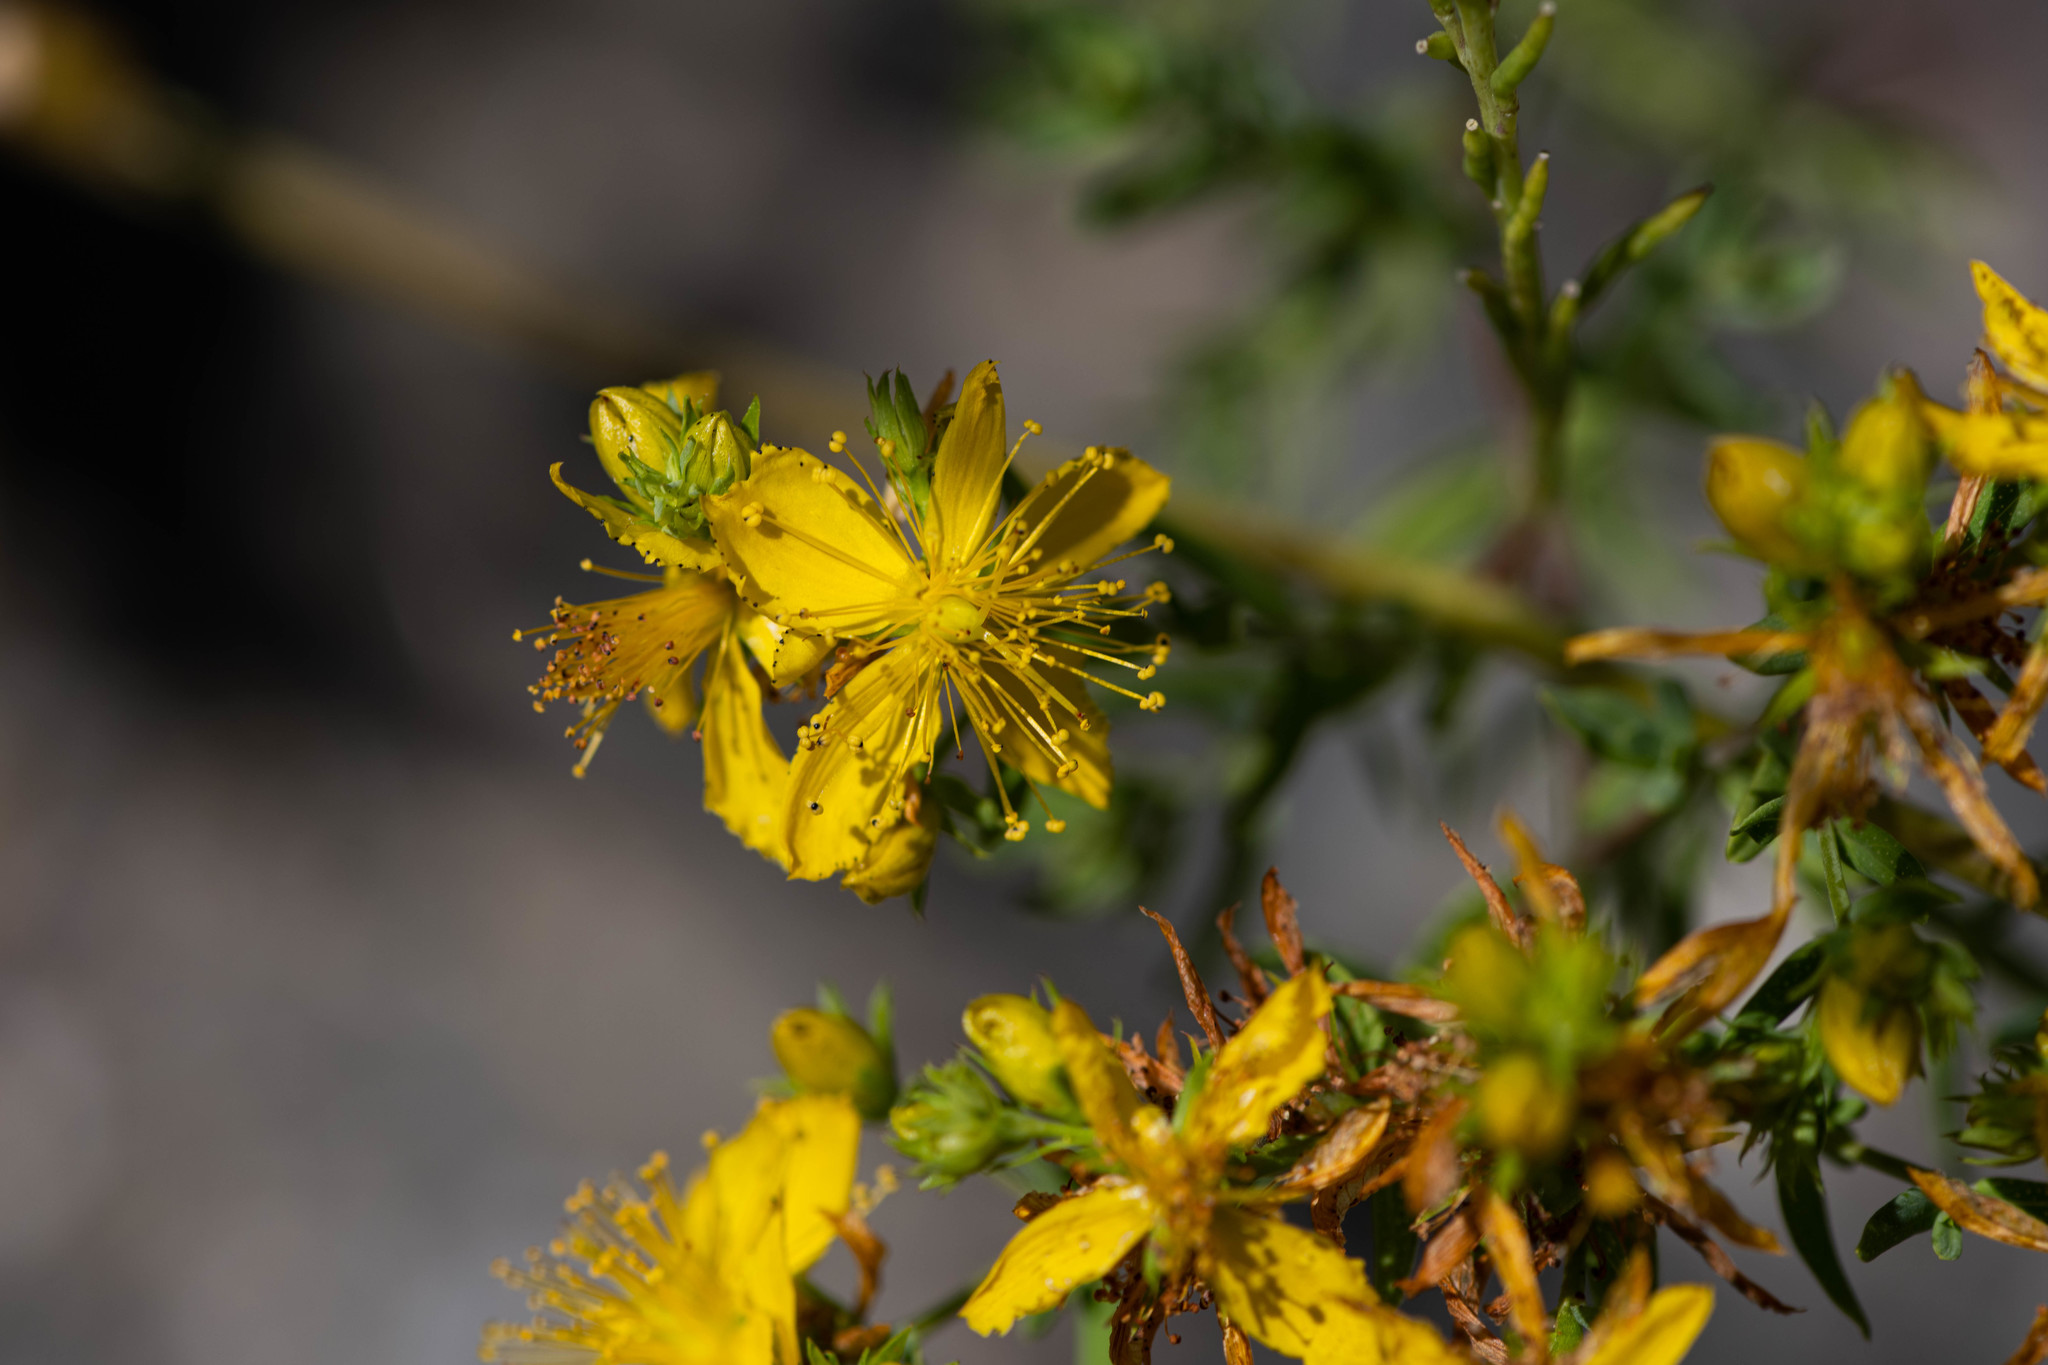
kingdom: Plantae
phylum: Tracheophyta
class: Magnoliopsida
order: Malpighiales
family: Hypericaceae
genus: Hypericum
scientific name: Hypericum perforatum
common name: Common st. johnswort
